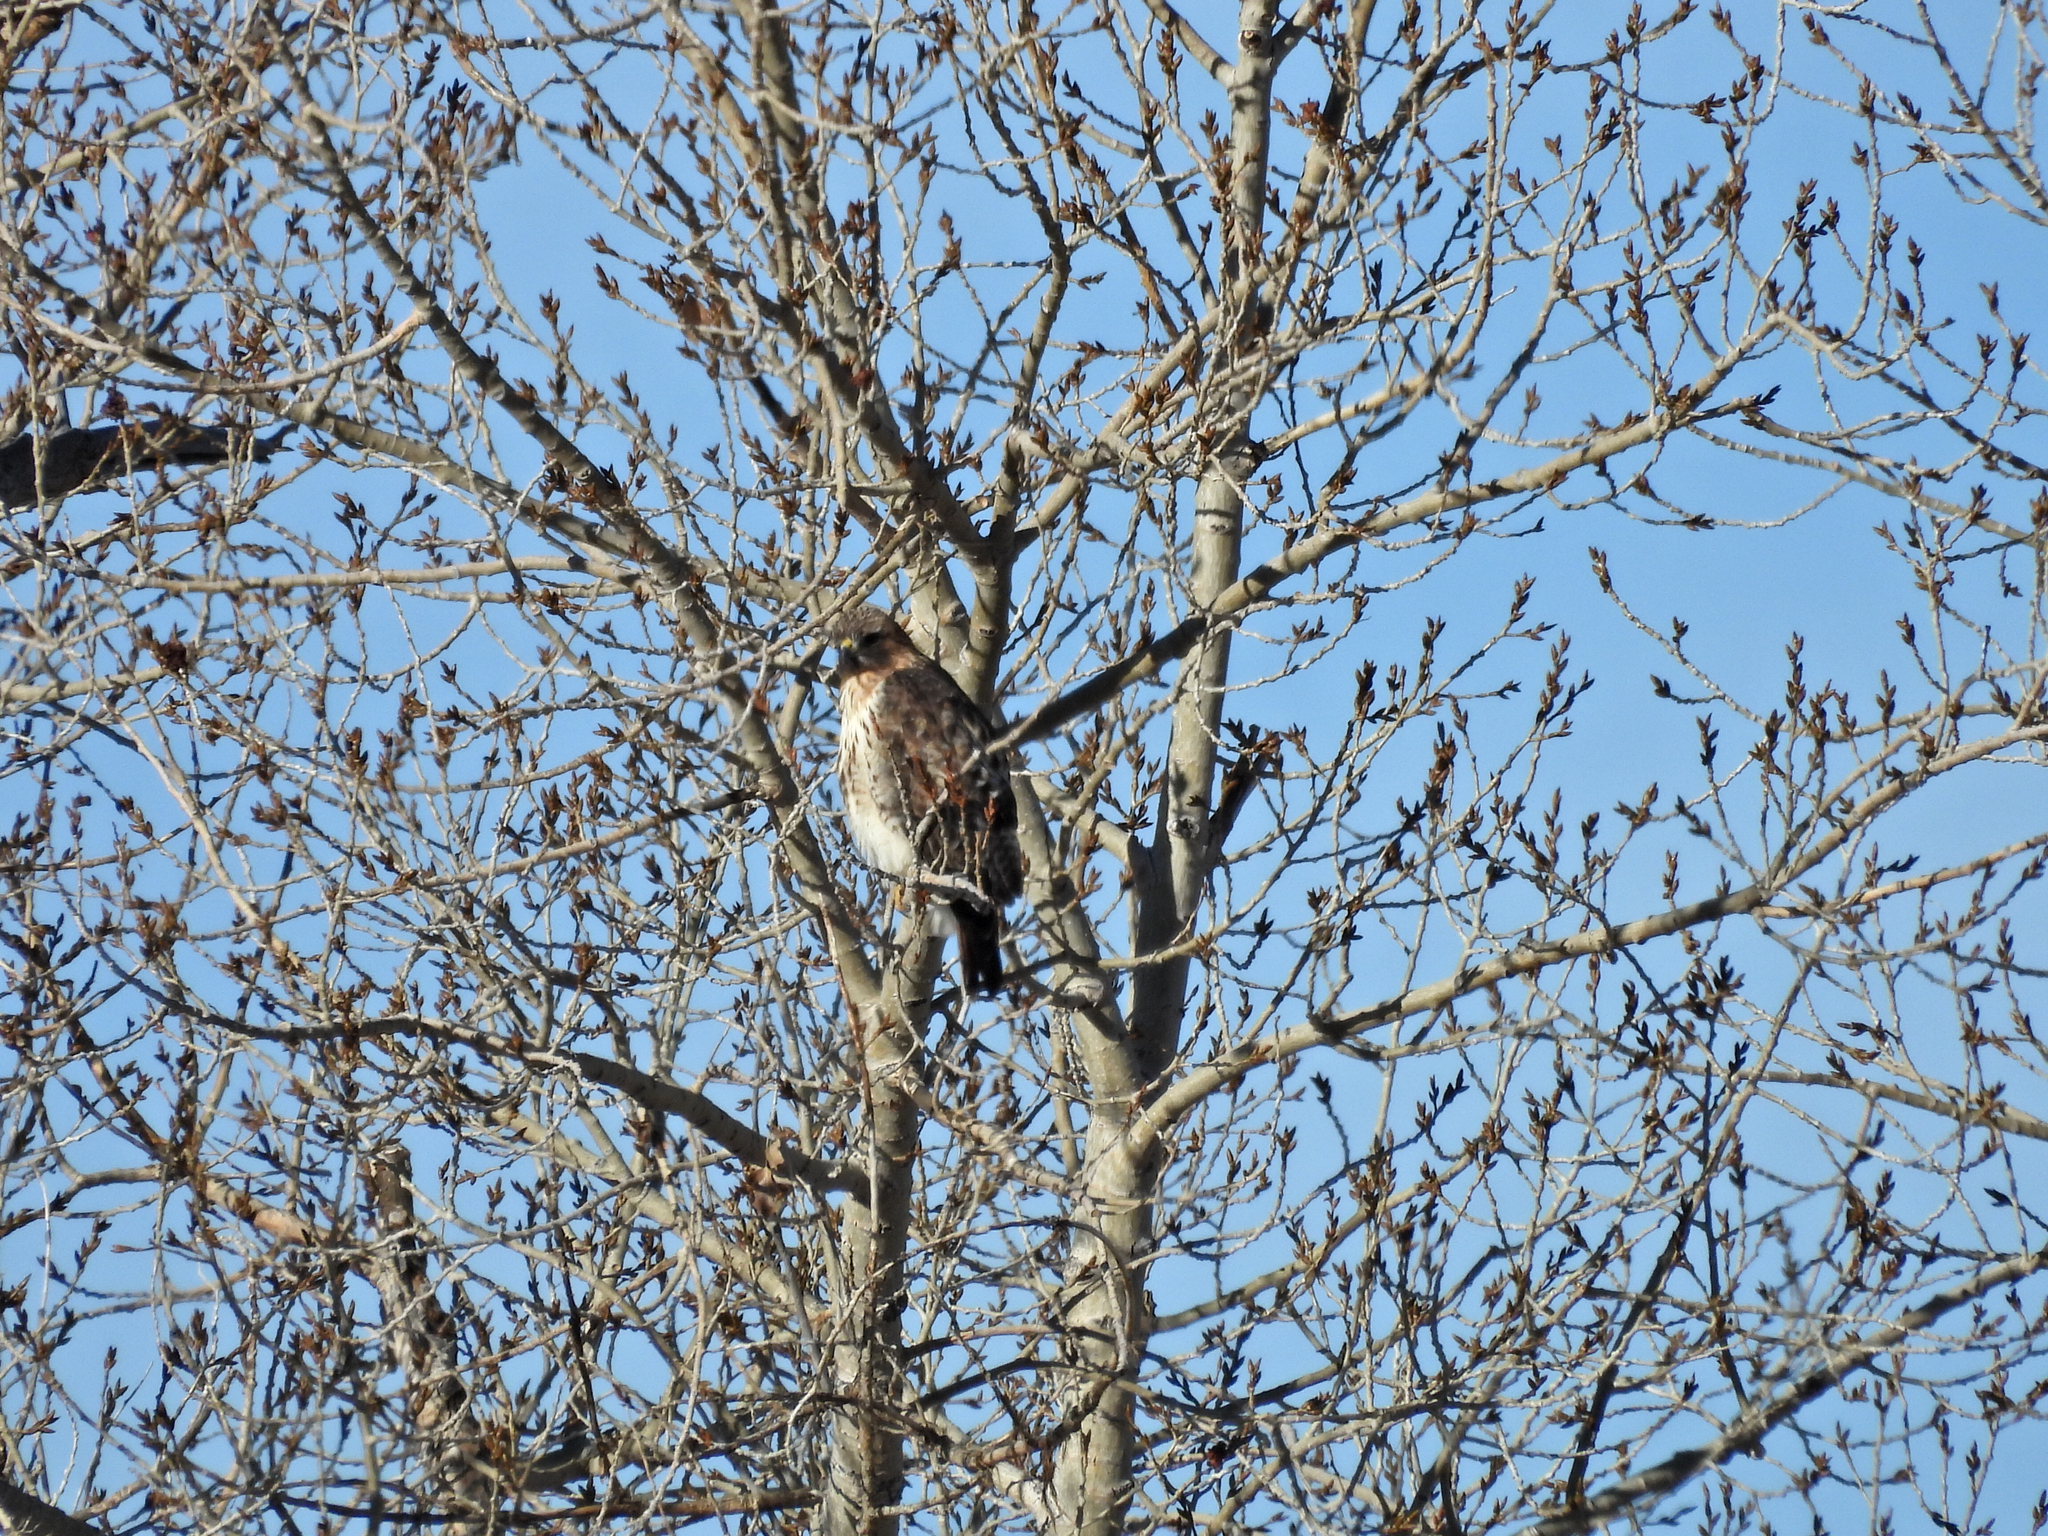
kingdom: Animalia
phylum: Chordata
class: Aves
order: Accipitriformes
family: Accipitridae
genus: Buteo
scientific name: Buteo jamaicensis
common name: Red-tailed hawk
